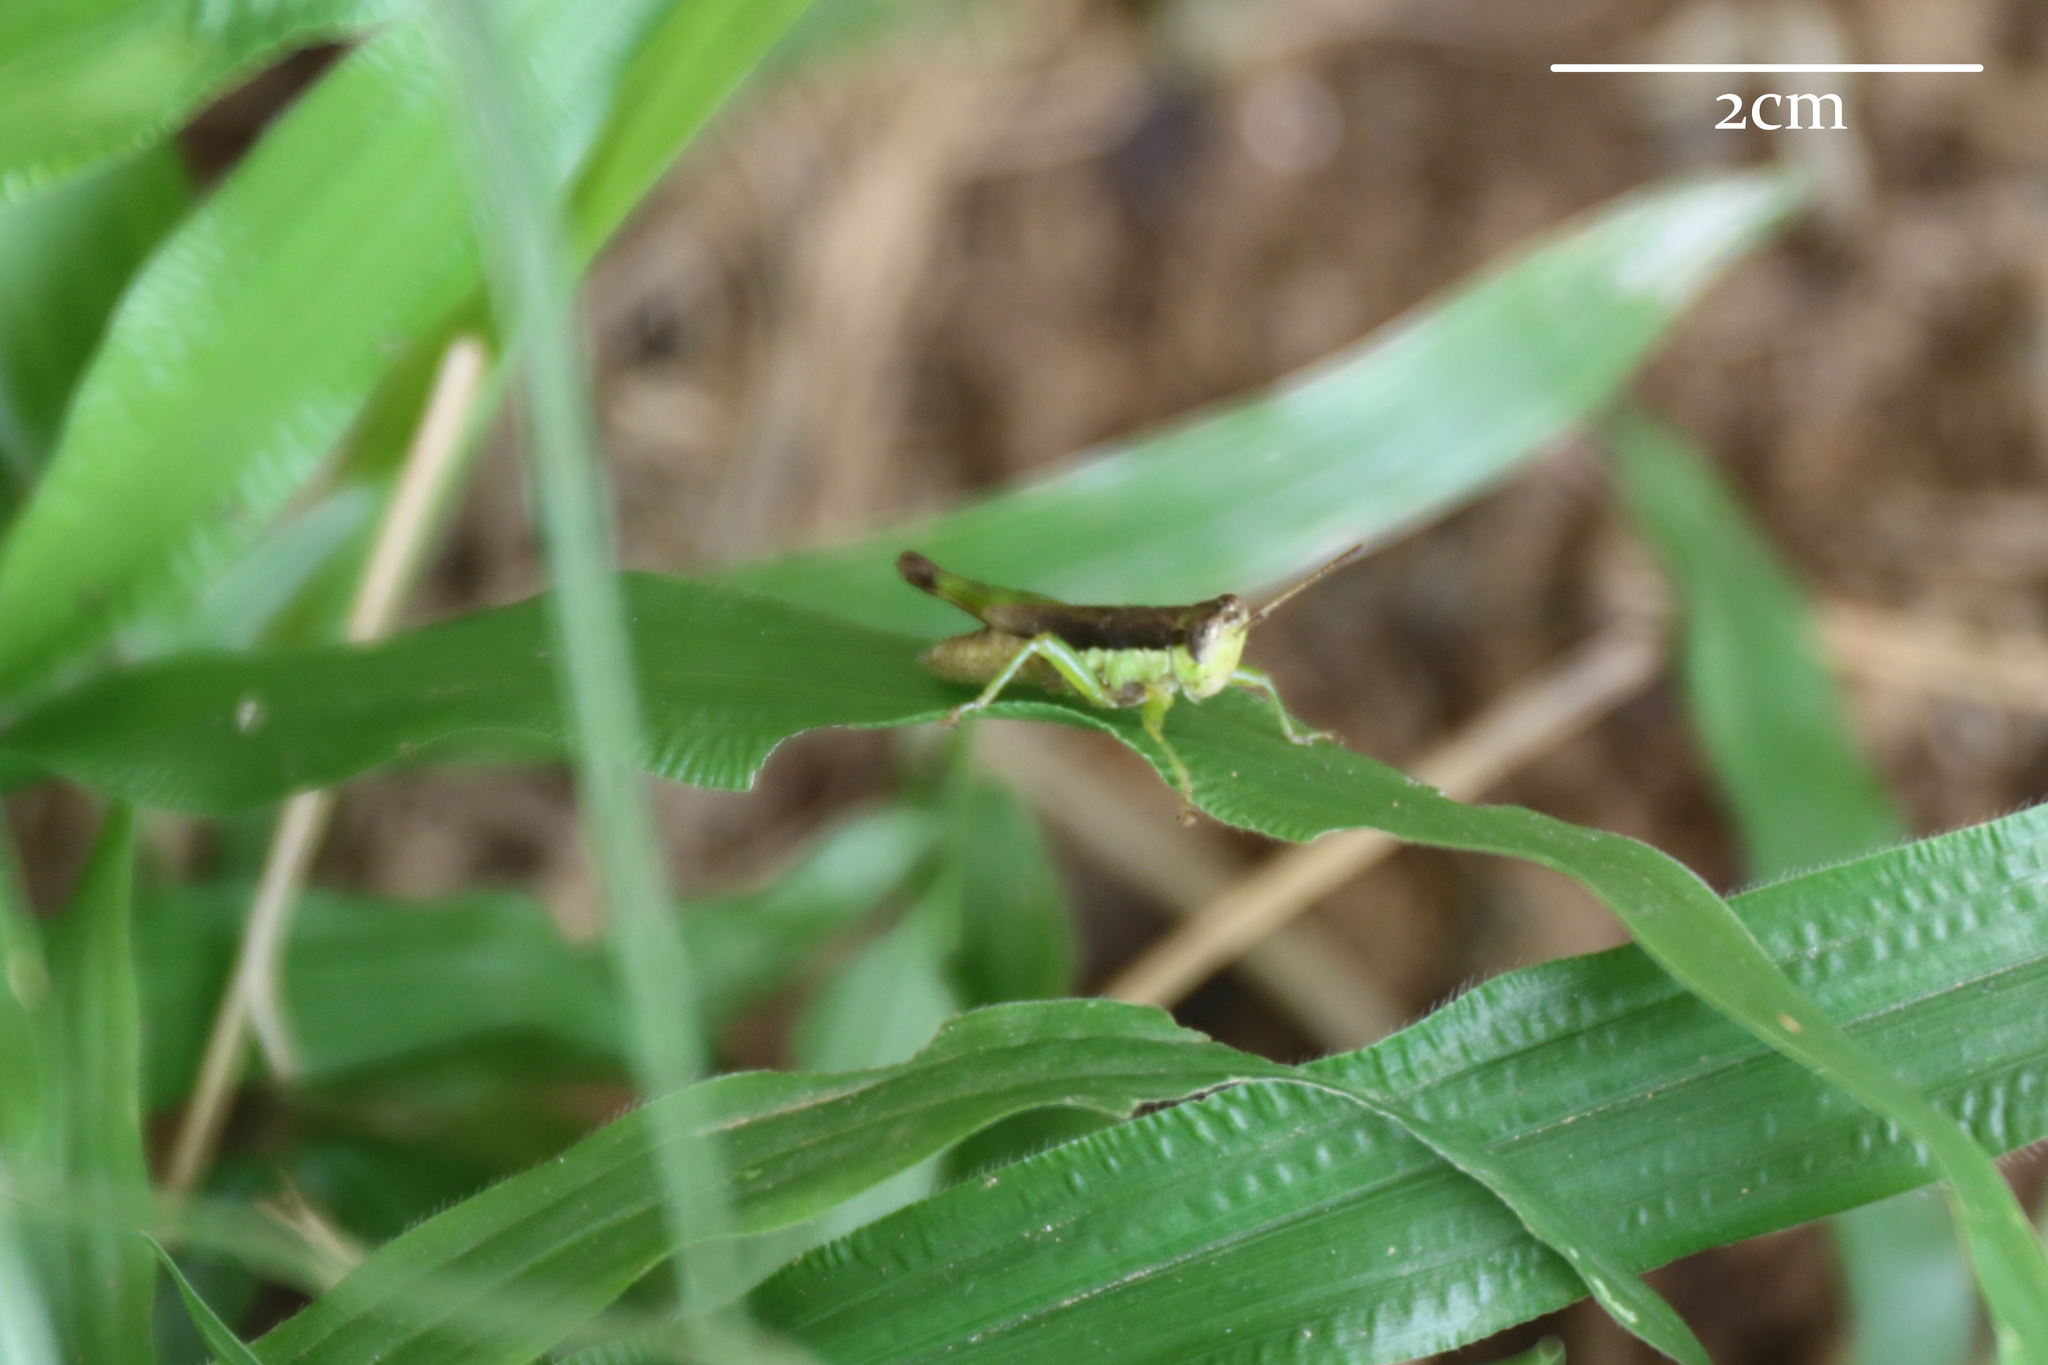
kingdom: Animalia
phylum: Arthropoda
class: Insecta
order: Orthoptera
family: Acrididae
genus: Pseudoxya
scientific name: Pseudoxya diminuta
